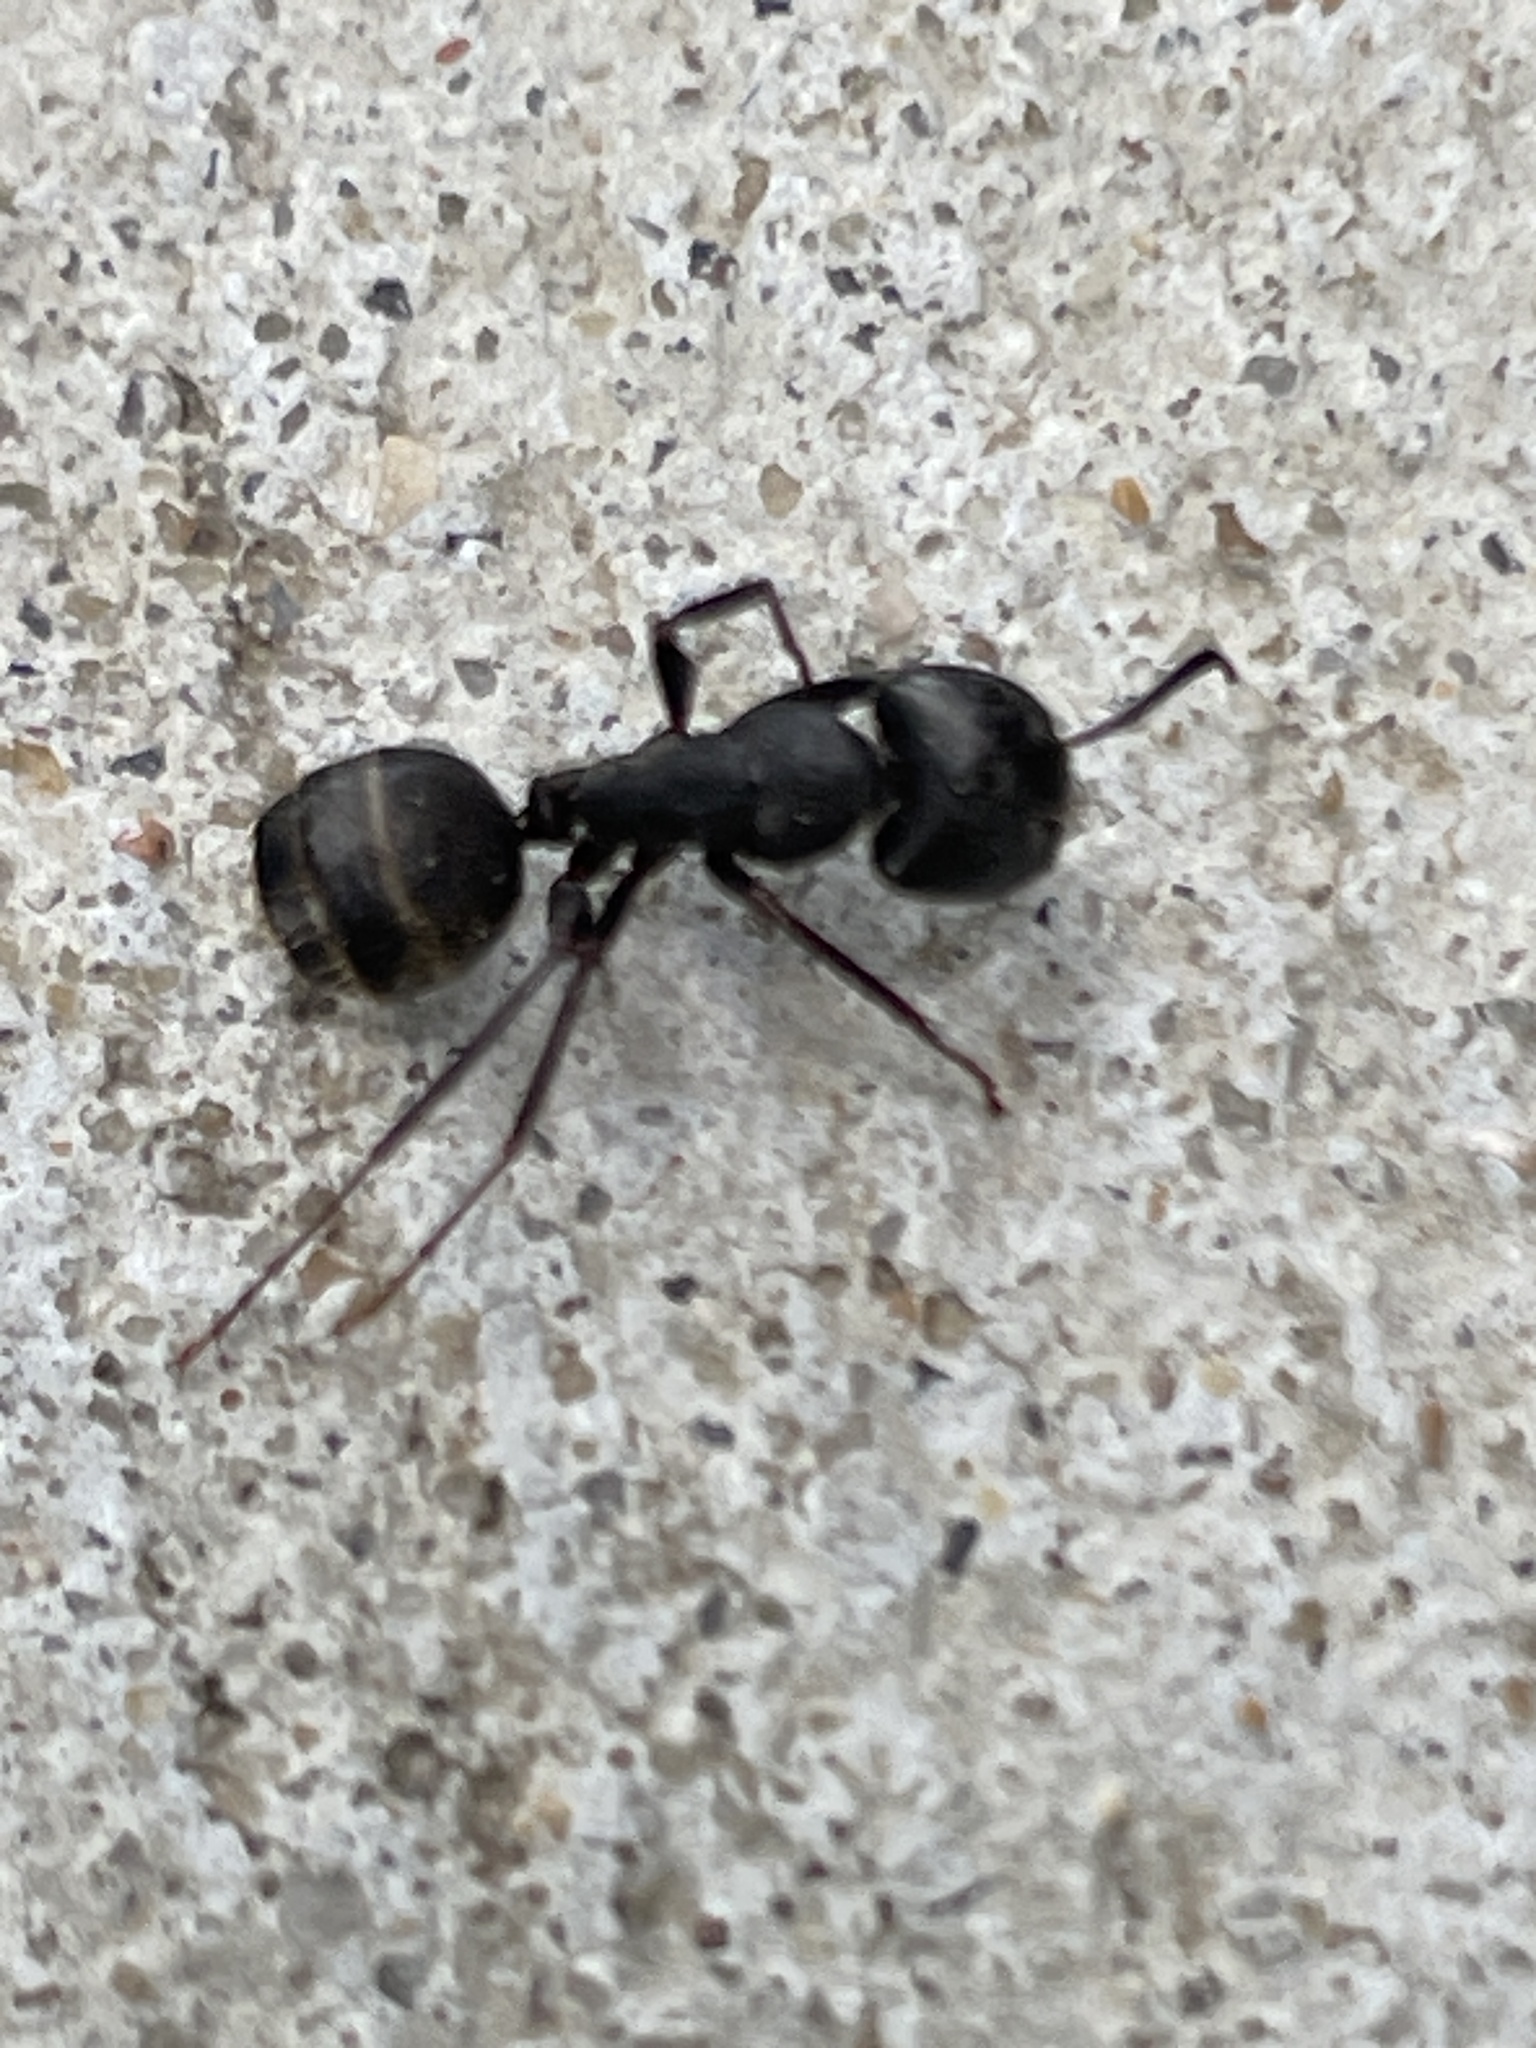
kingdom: Animalia
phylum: Arthropoda
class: Insecta
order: Hymenoptera
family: Formicidae
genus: Camponotus
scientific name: Camponotus pennsylvanicus
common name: Black carpenter ant
